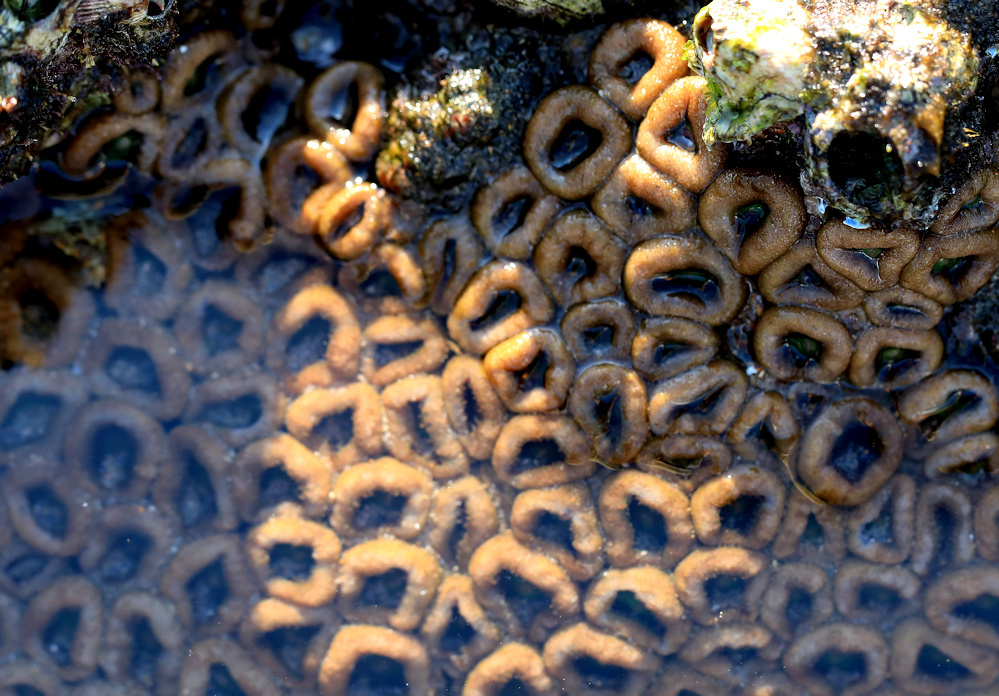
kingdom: Animalia
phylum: Cnidaria
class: Anthozoa
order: Zoantharia
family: Sphenopidae
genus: Palythoa
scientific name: Palythoa mutuki
